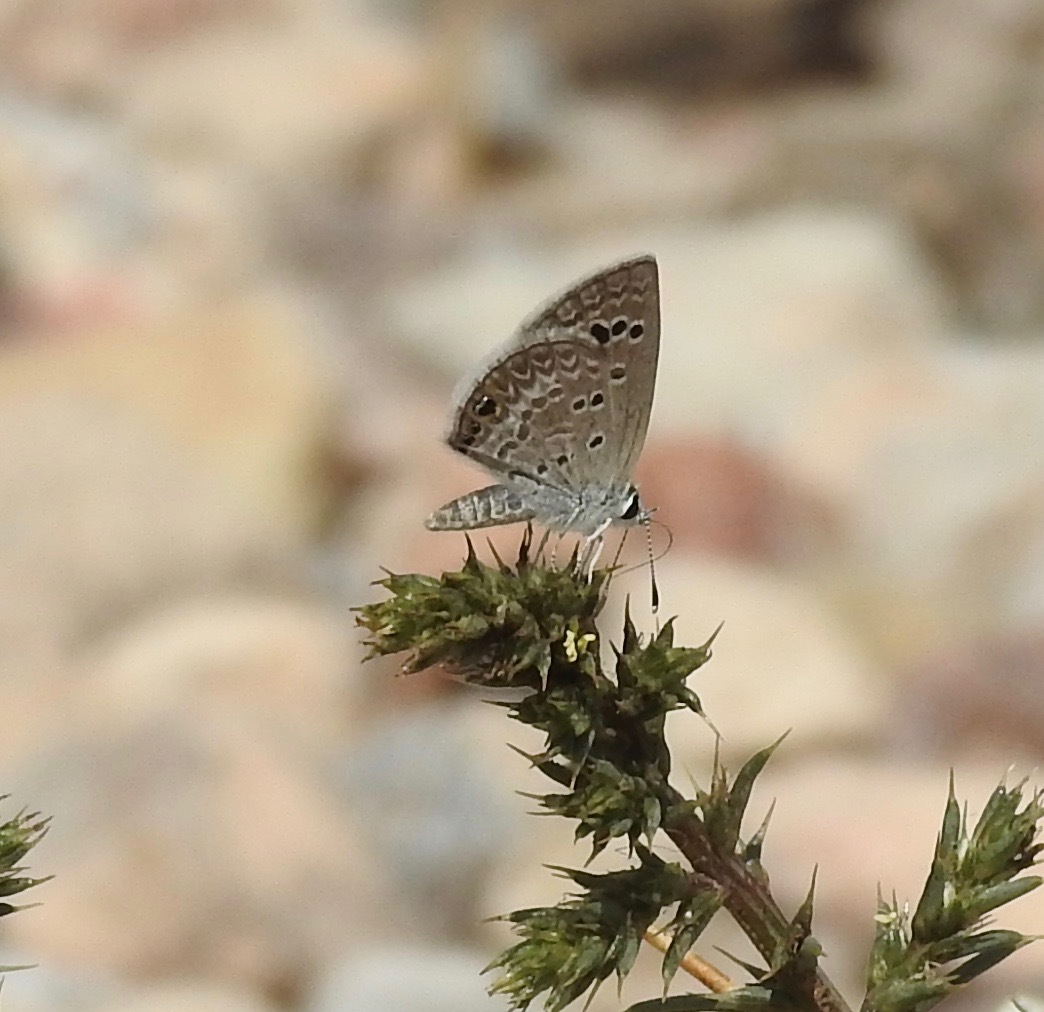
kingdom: Animalia
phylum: Arthropoda
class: Insecta
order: Lepidoptera
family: Lycaenidae
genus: Echinargus
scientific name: Echinargus isola
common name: Reakirt's blue
